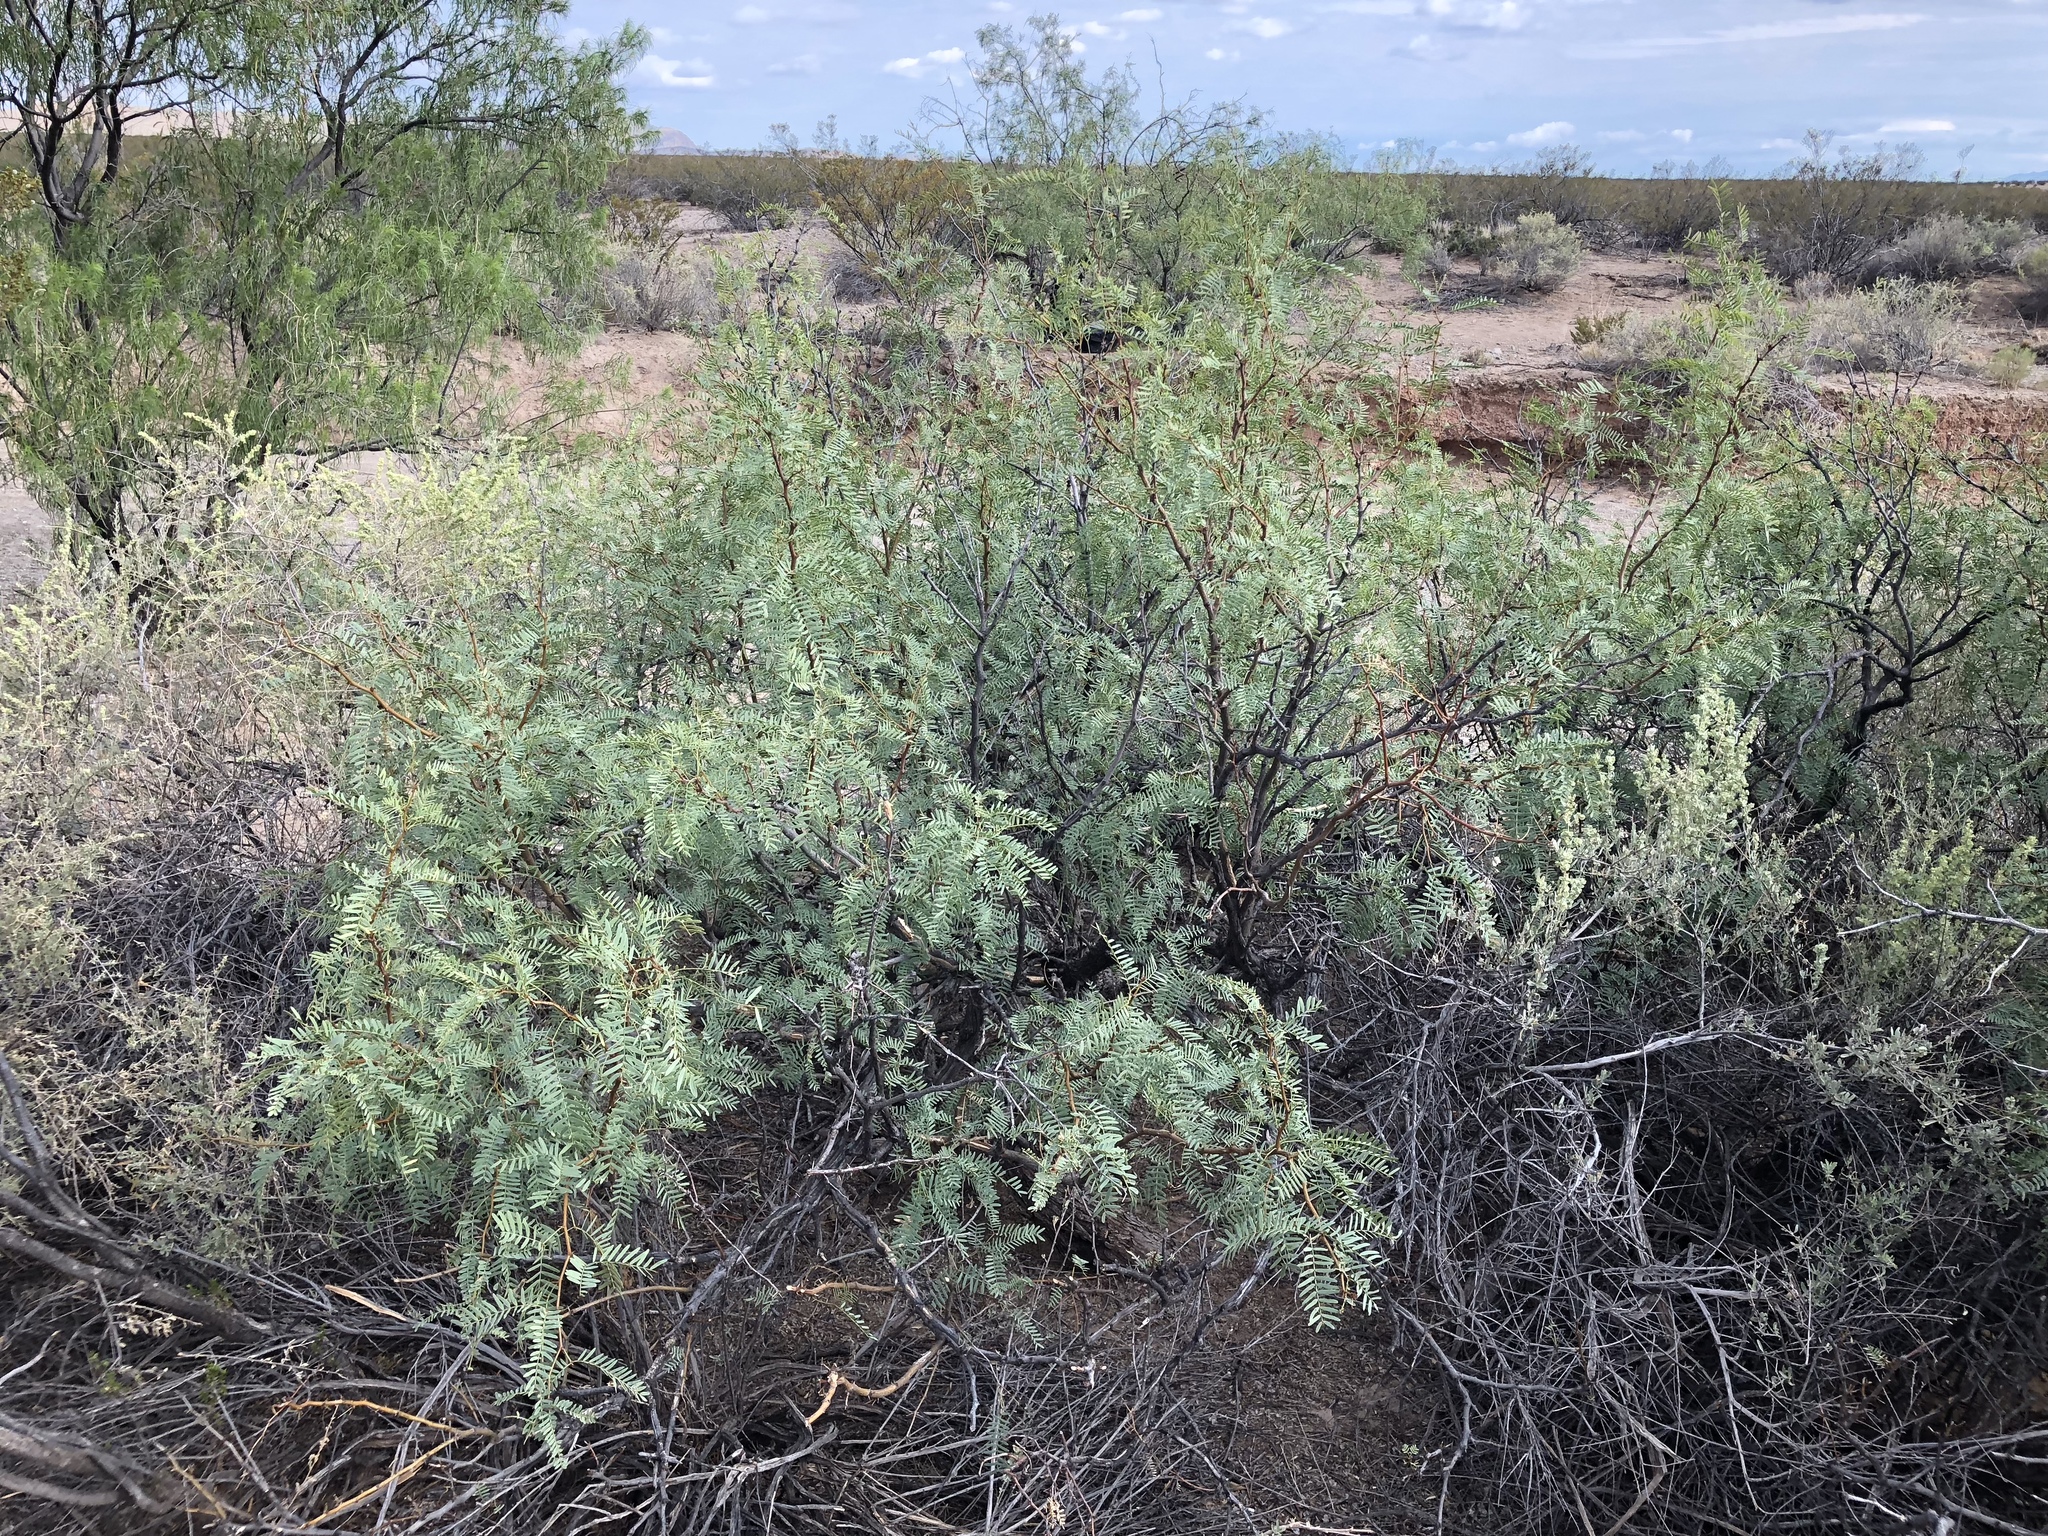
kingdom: Plantae
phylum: Tracheophyta
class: Magnoliopsida
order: Fabales
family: Fabaceae
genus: Prosopis
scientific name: Prosopis glandulosa
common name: Honey mesquite
